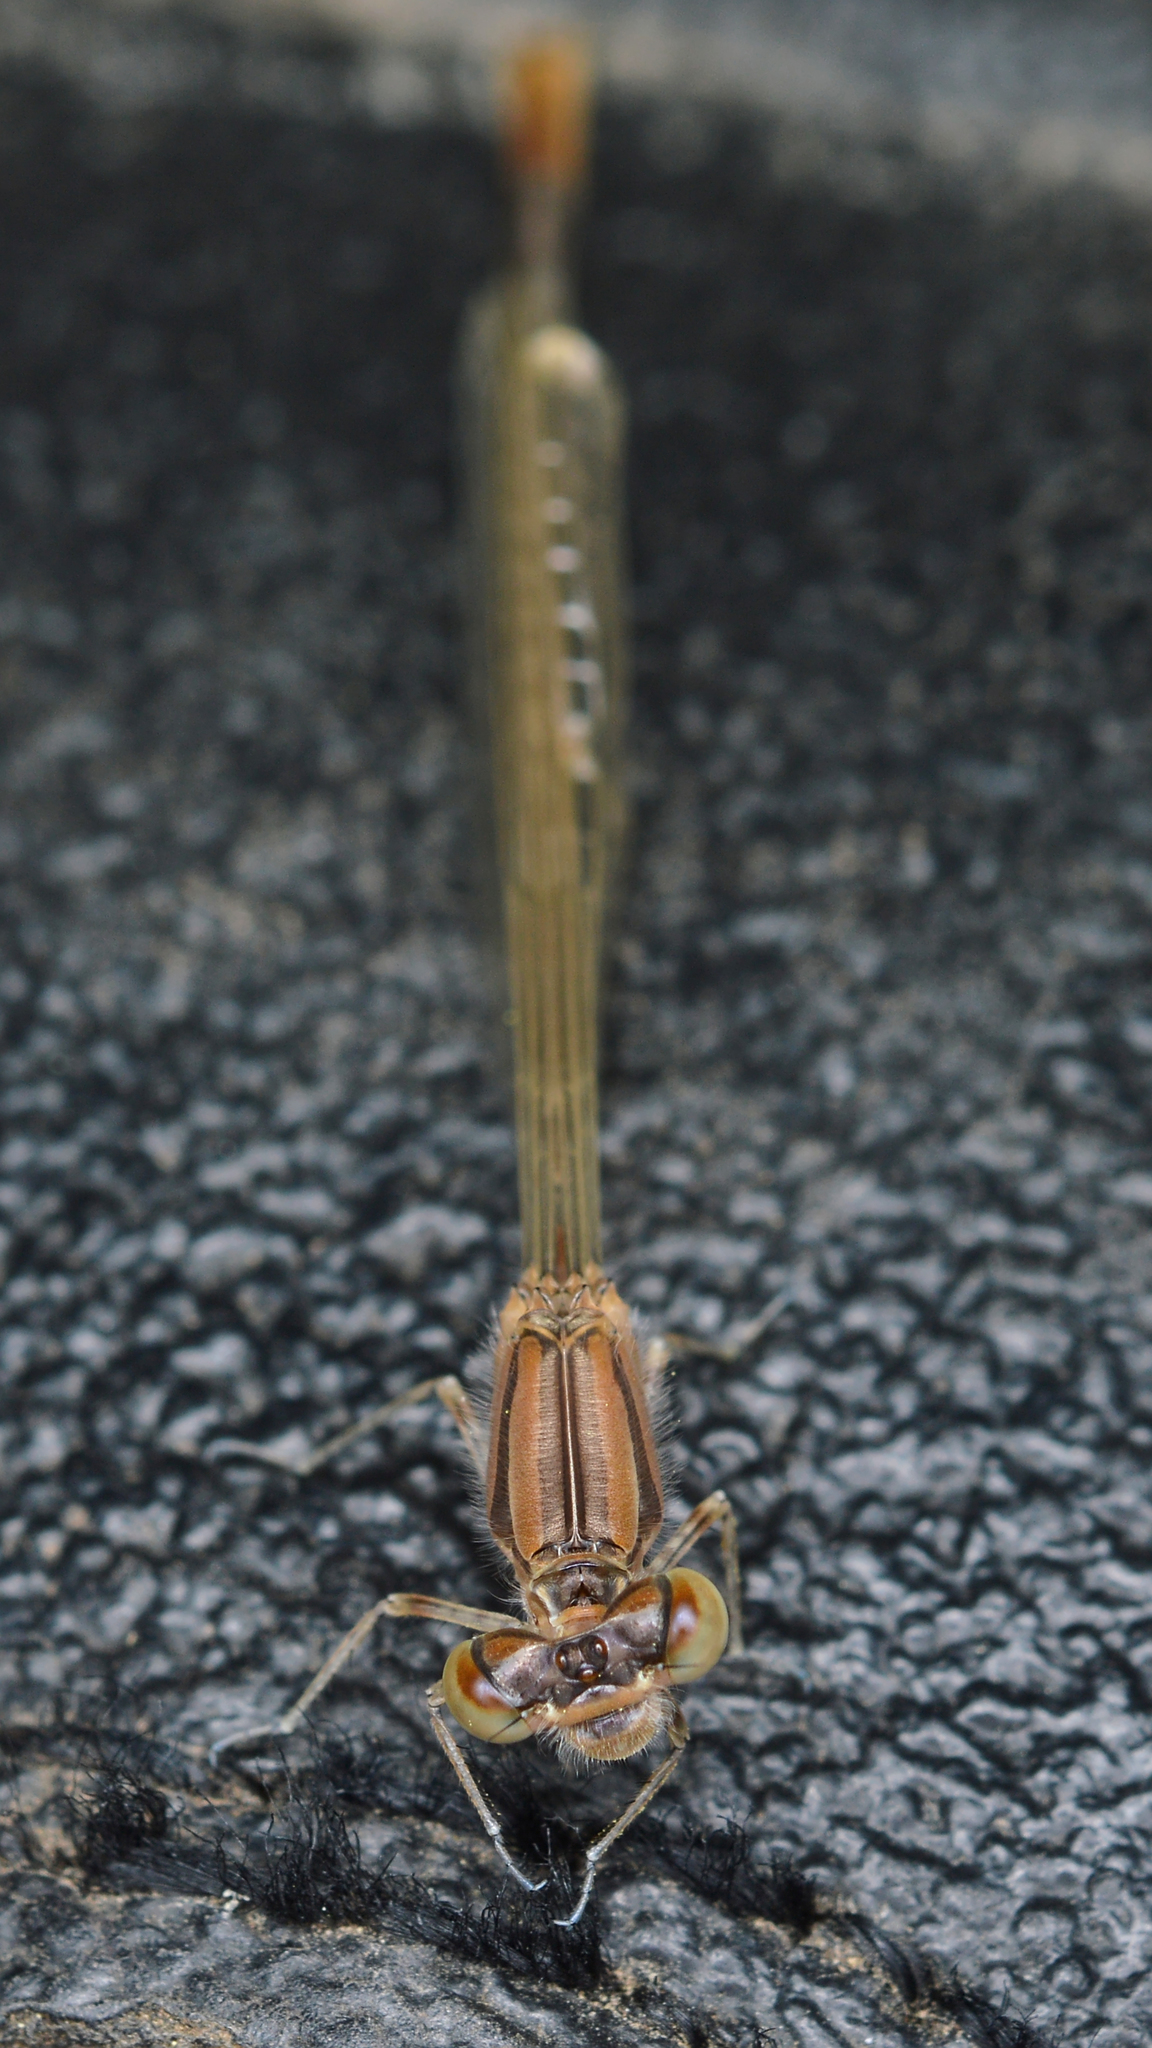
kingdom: Animalia
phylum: Arthropoda
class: Insecta
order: Odonata
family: Coenagrionidae
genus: Enallagma
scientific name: Enallagma civile
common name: Damselfly
